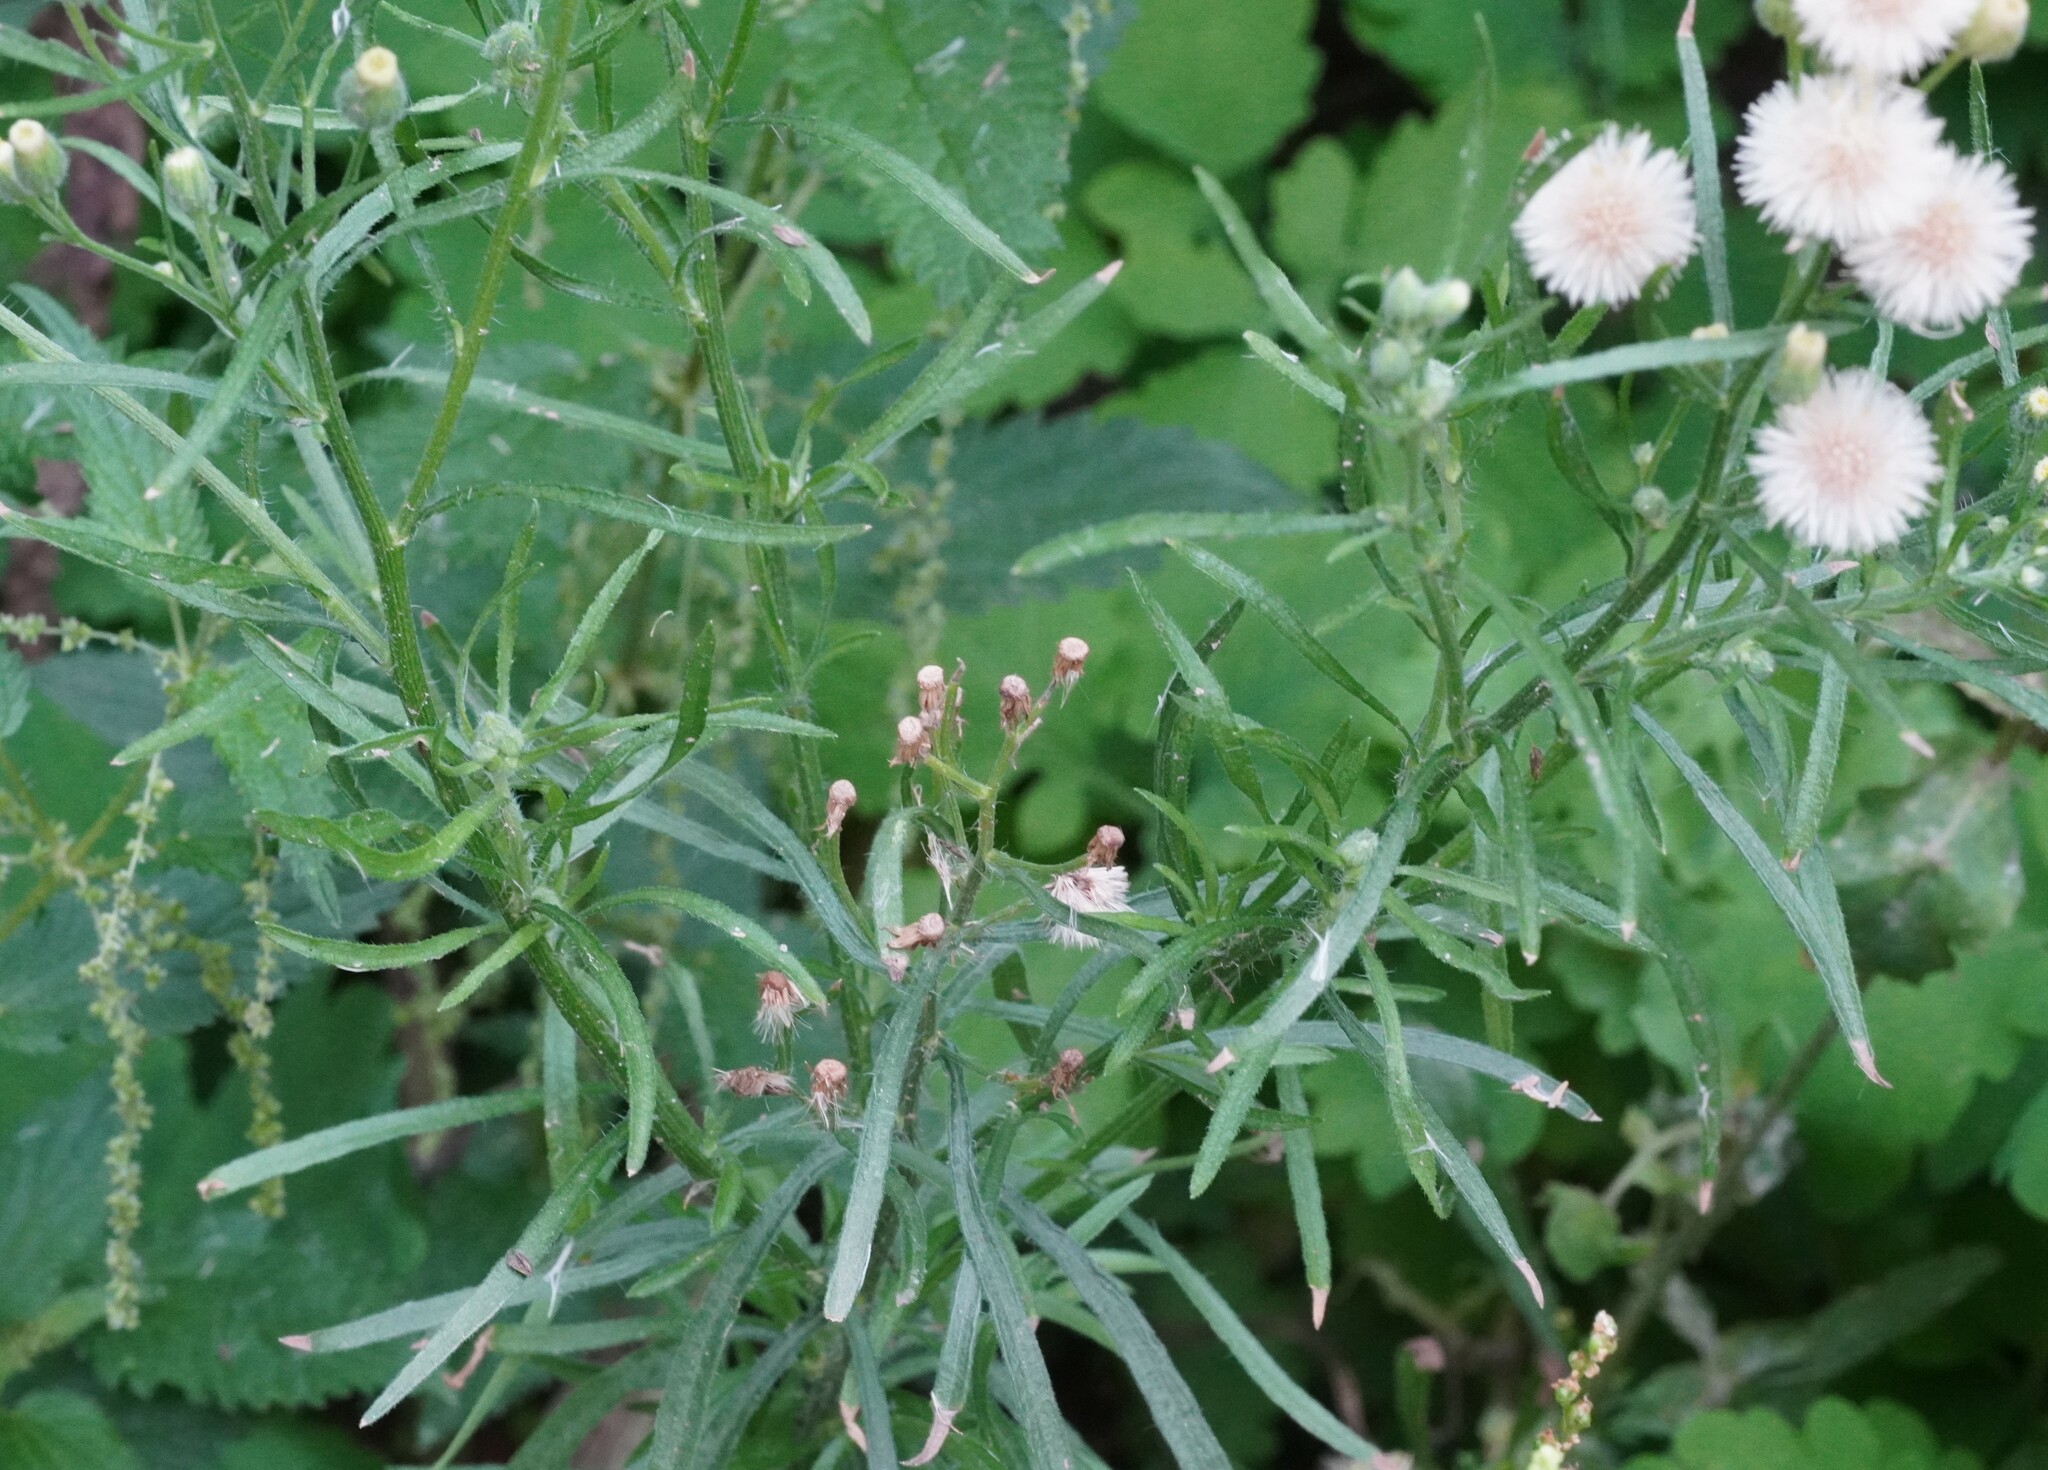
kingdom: Plantae
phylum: Tracheophyta
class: Magnoliopsida
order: Asterales
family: Asteraceae
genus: Erigeron
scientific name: Erigeron bonariensis
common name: Argentine fleabane
